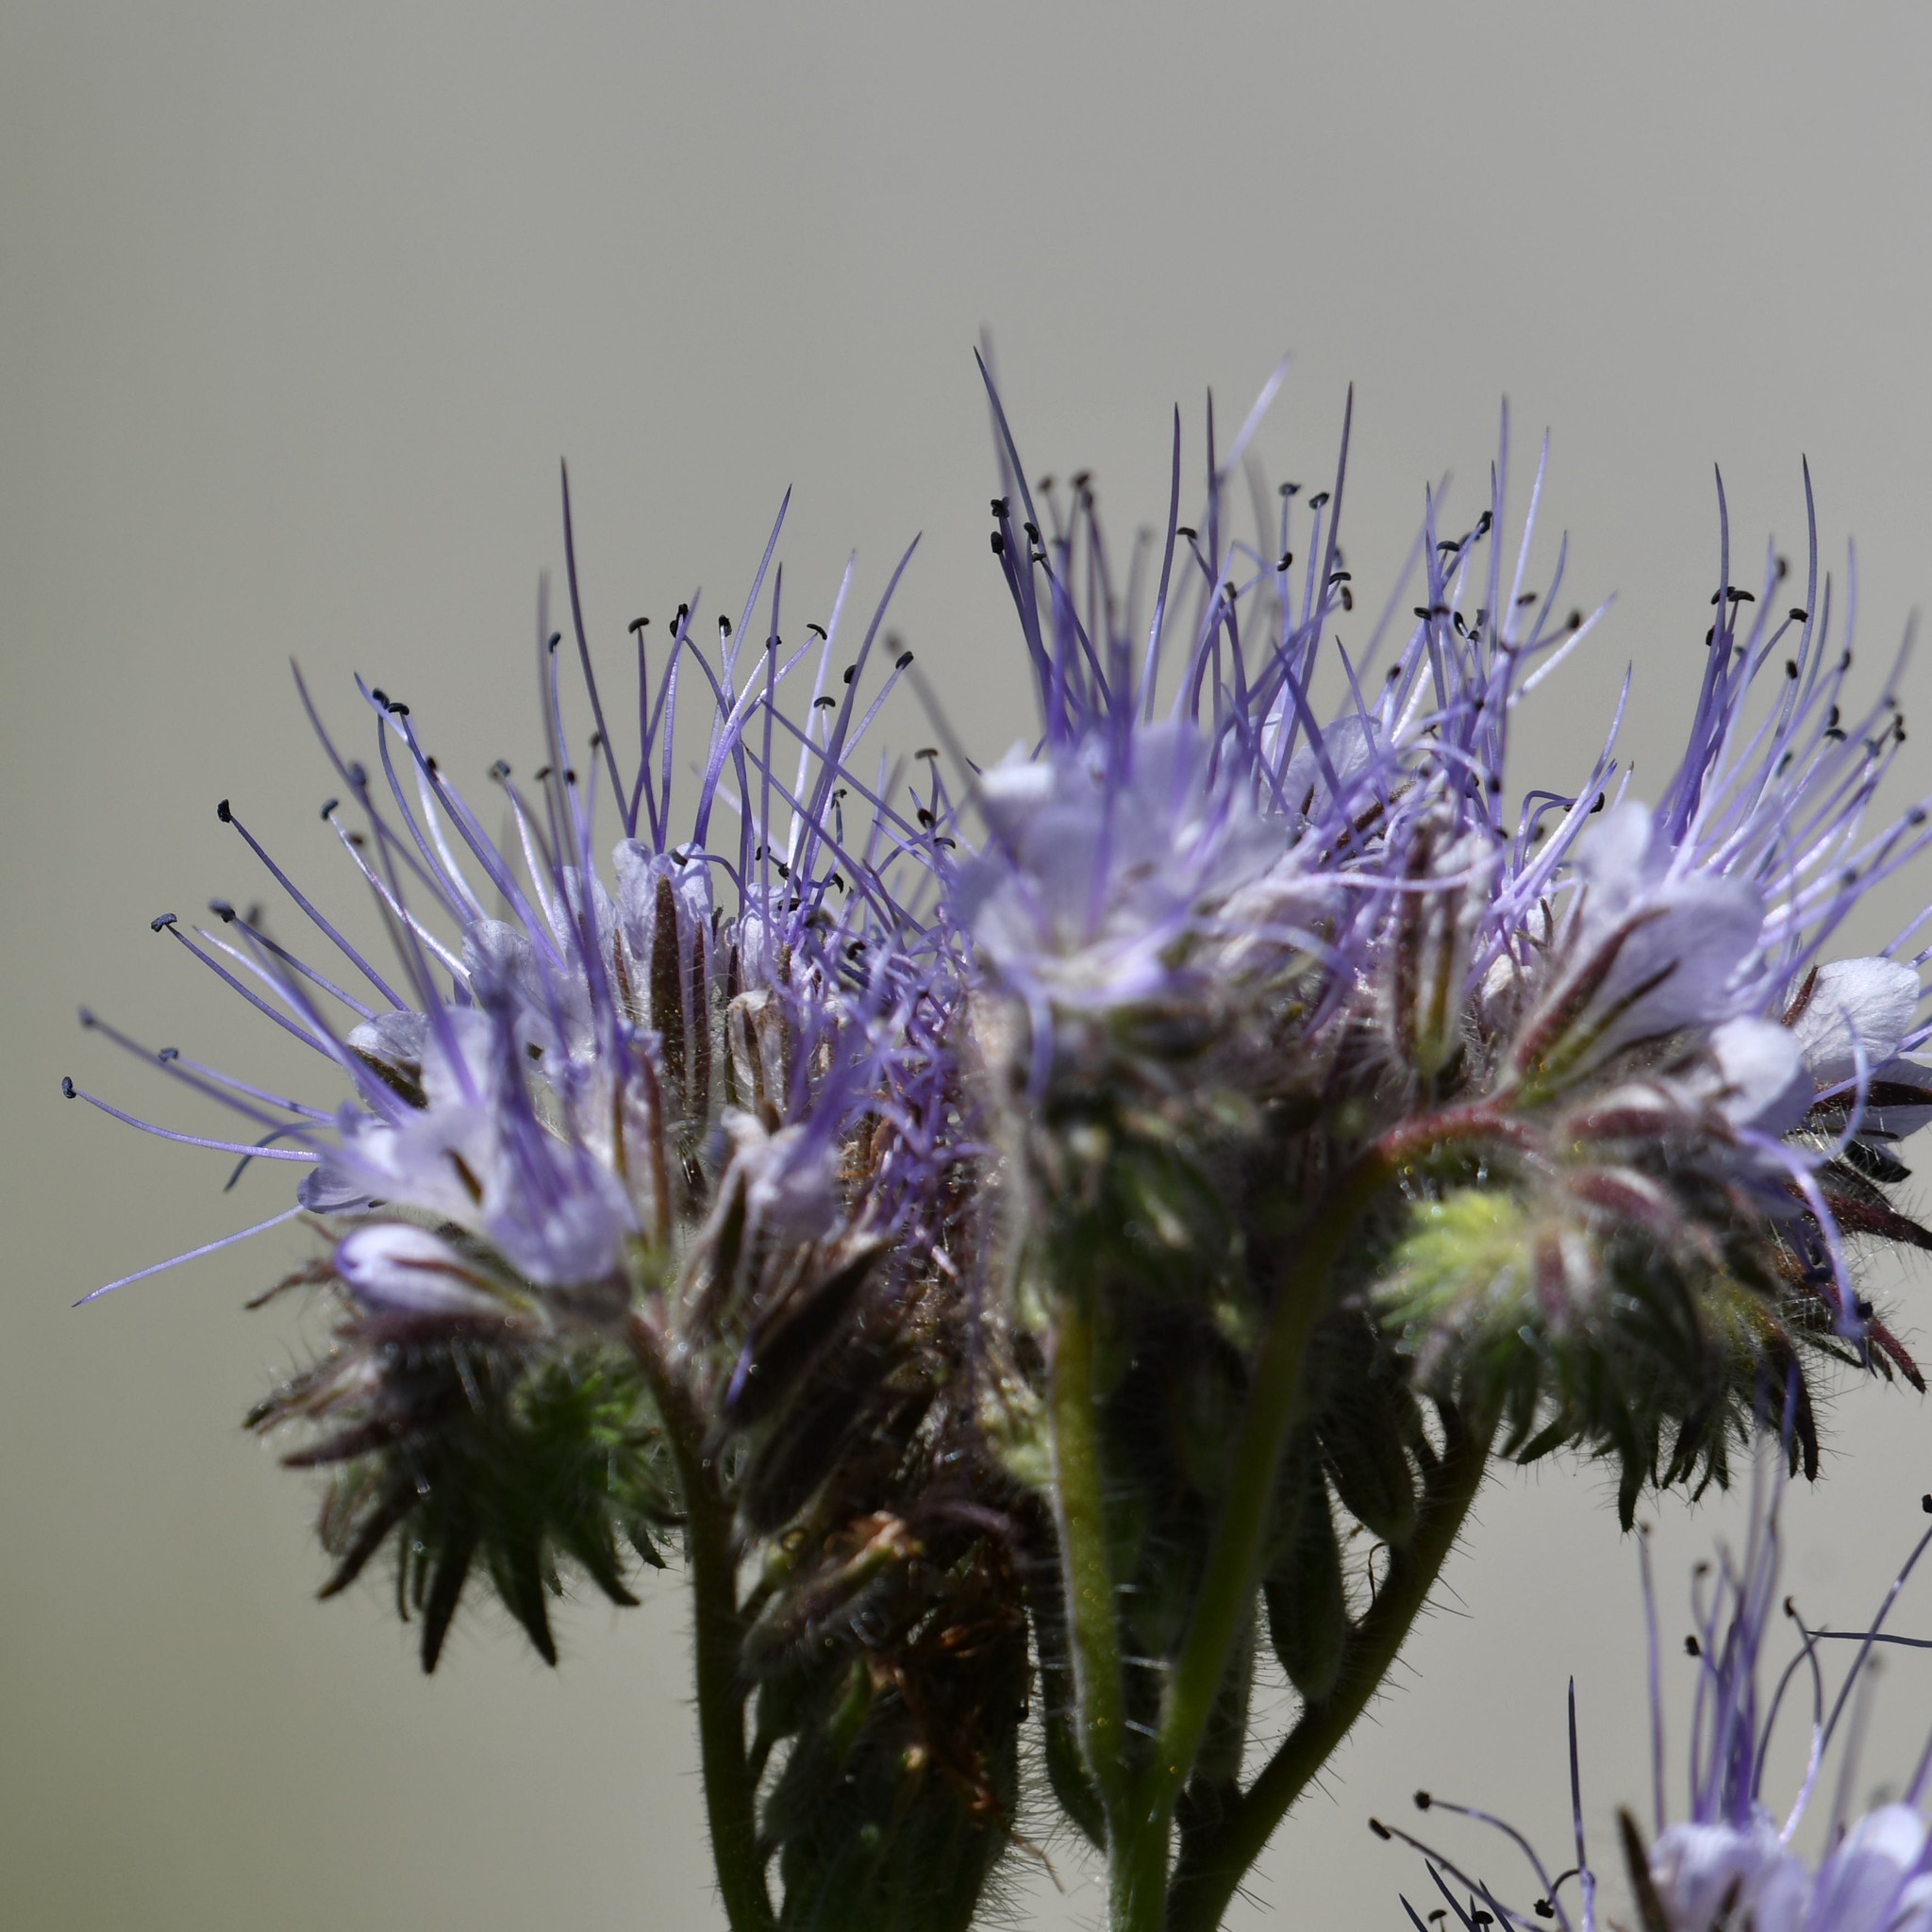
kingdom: Plantae
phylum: Tracheophyta
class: Magnoliopsida
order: Boraginales
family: Hydrophyllaceae
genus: Phacelia
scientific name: Phacelia tanacetifolia
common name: Phacelia
